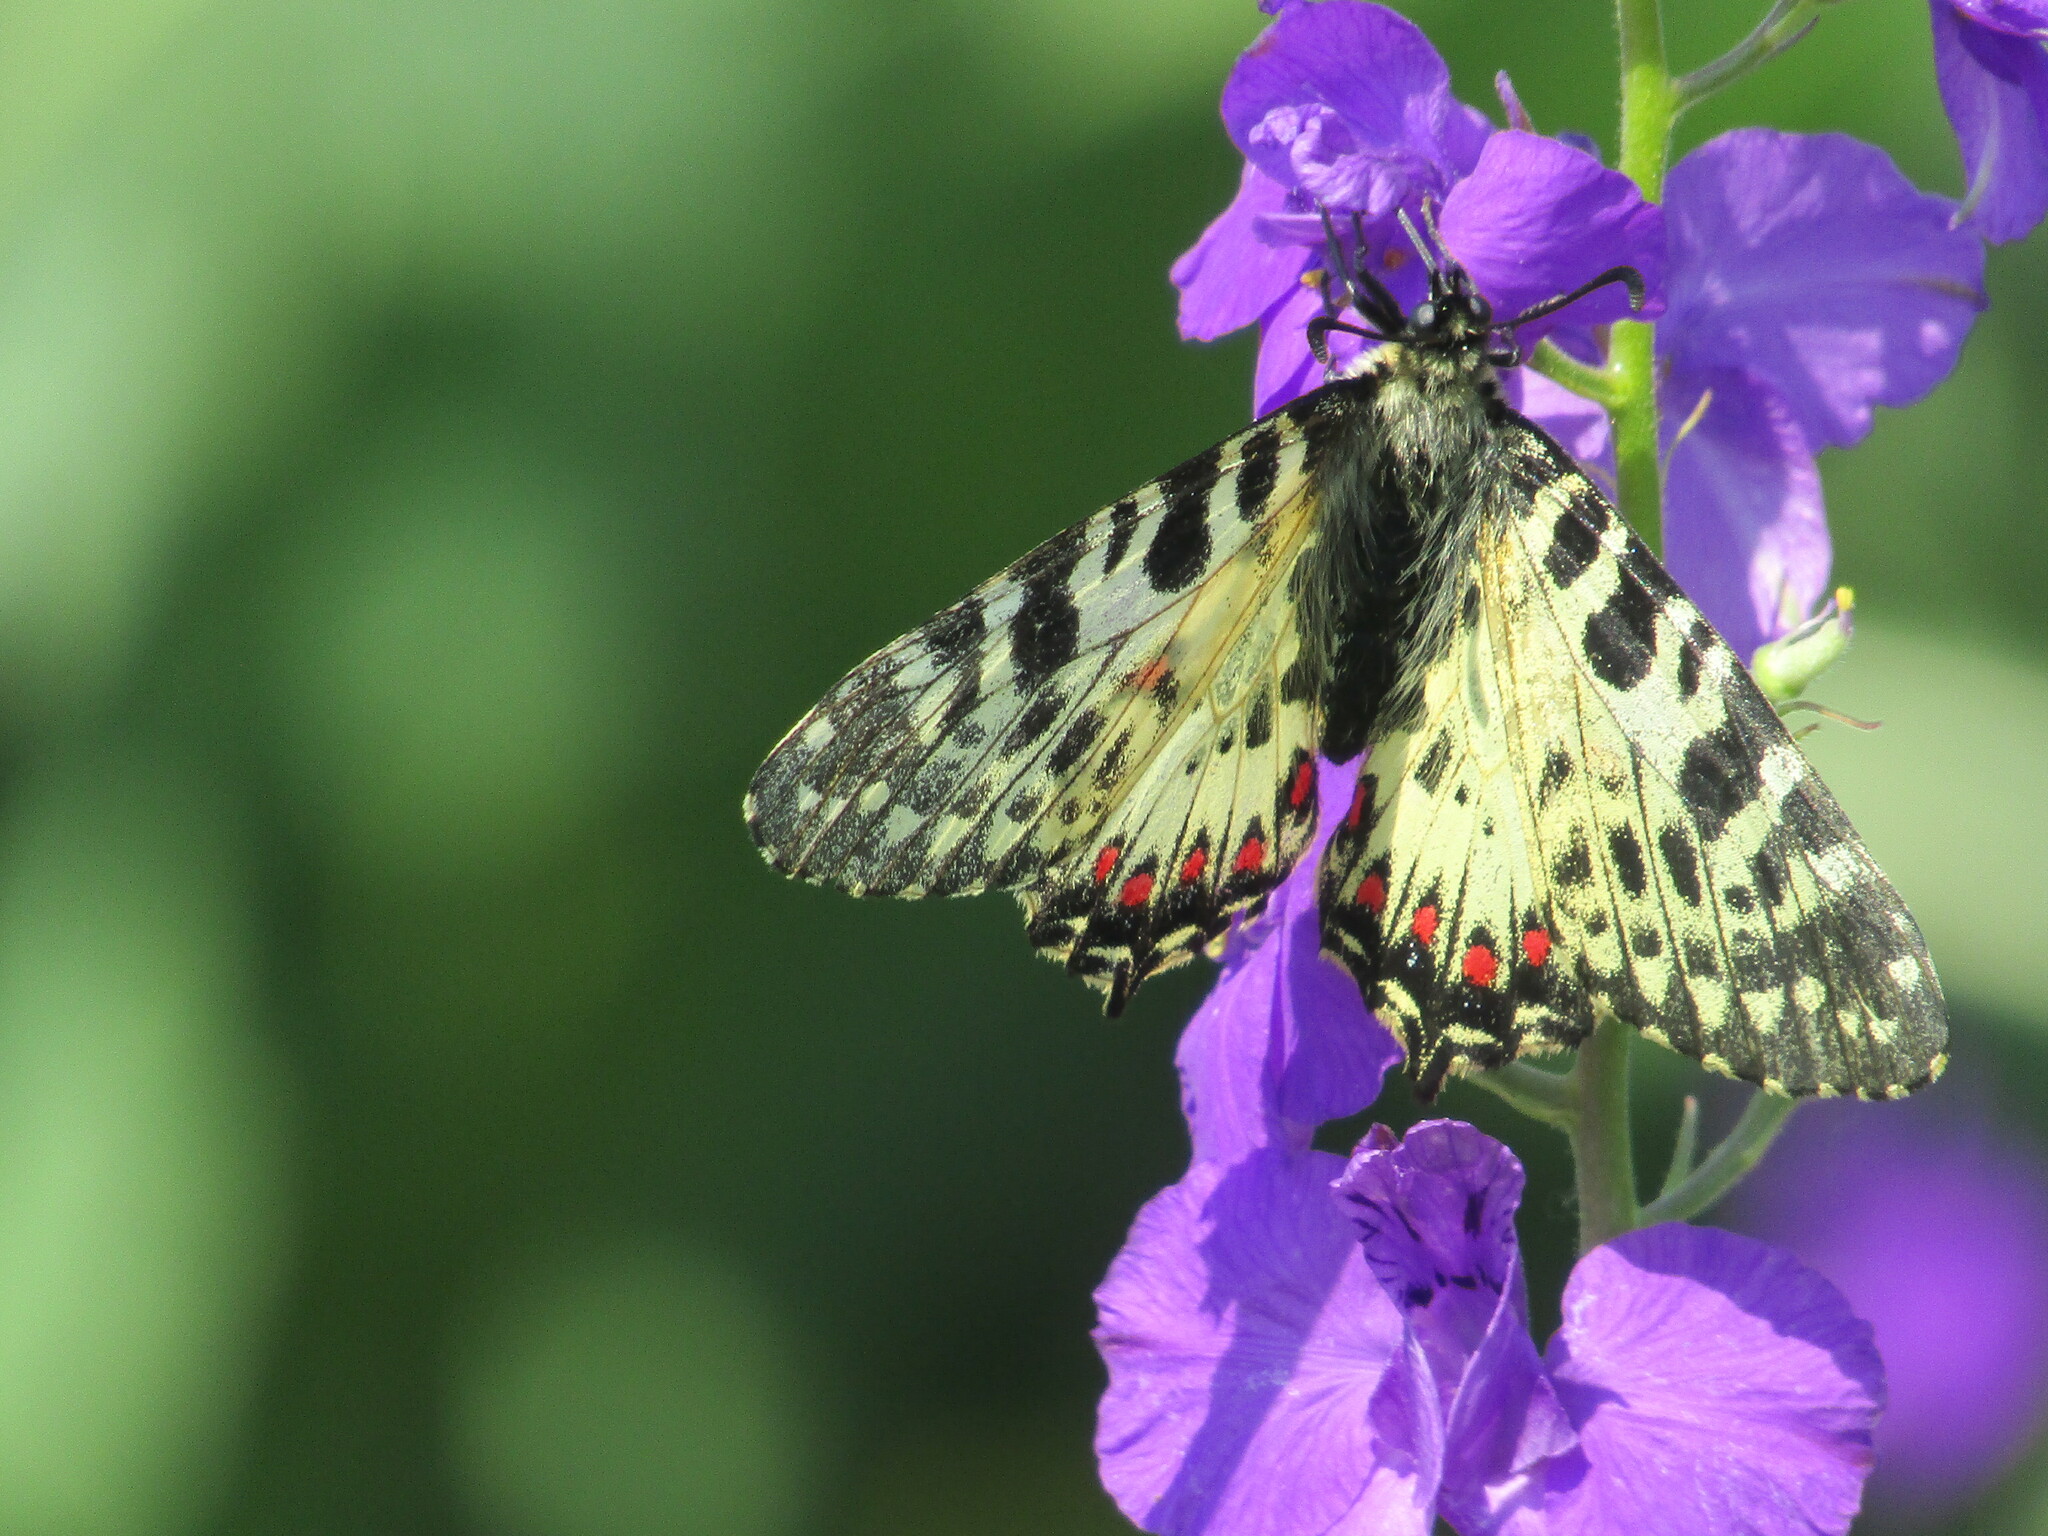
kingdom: Animalia
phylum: Arthropoda
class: Insecta
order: Lepidoptera
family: Papilionidae
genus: Zerynthia
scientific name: Zerynthia cerisy
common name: Eastern festoon
